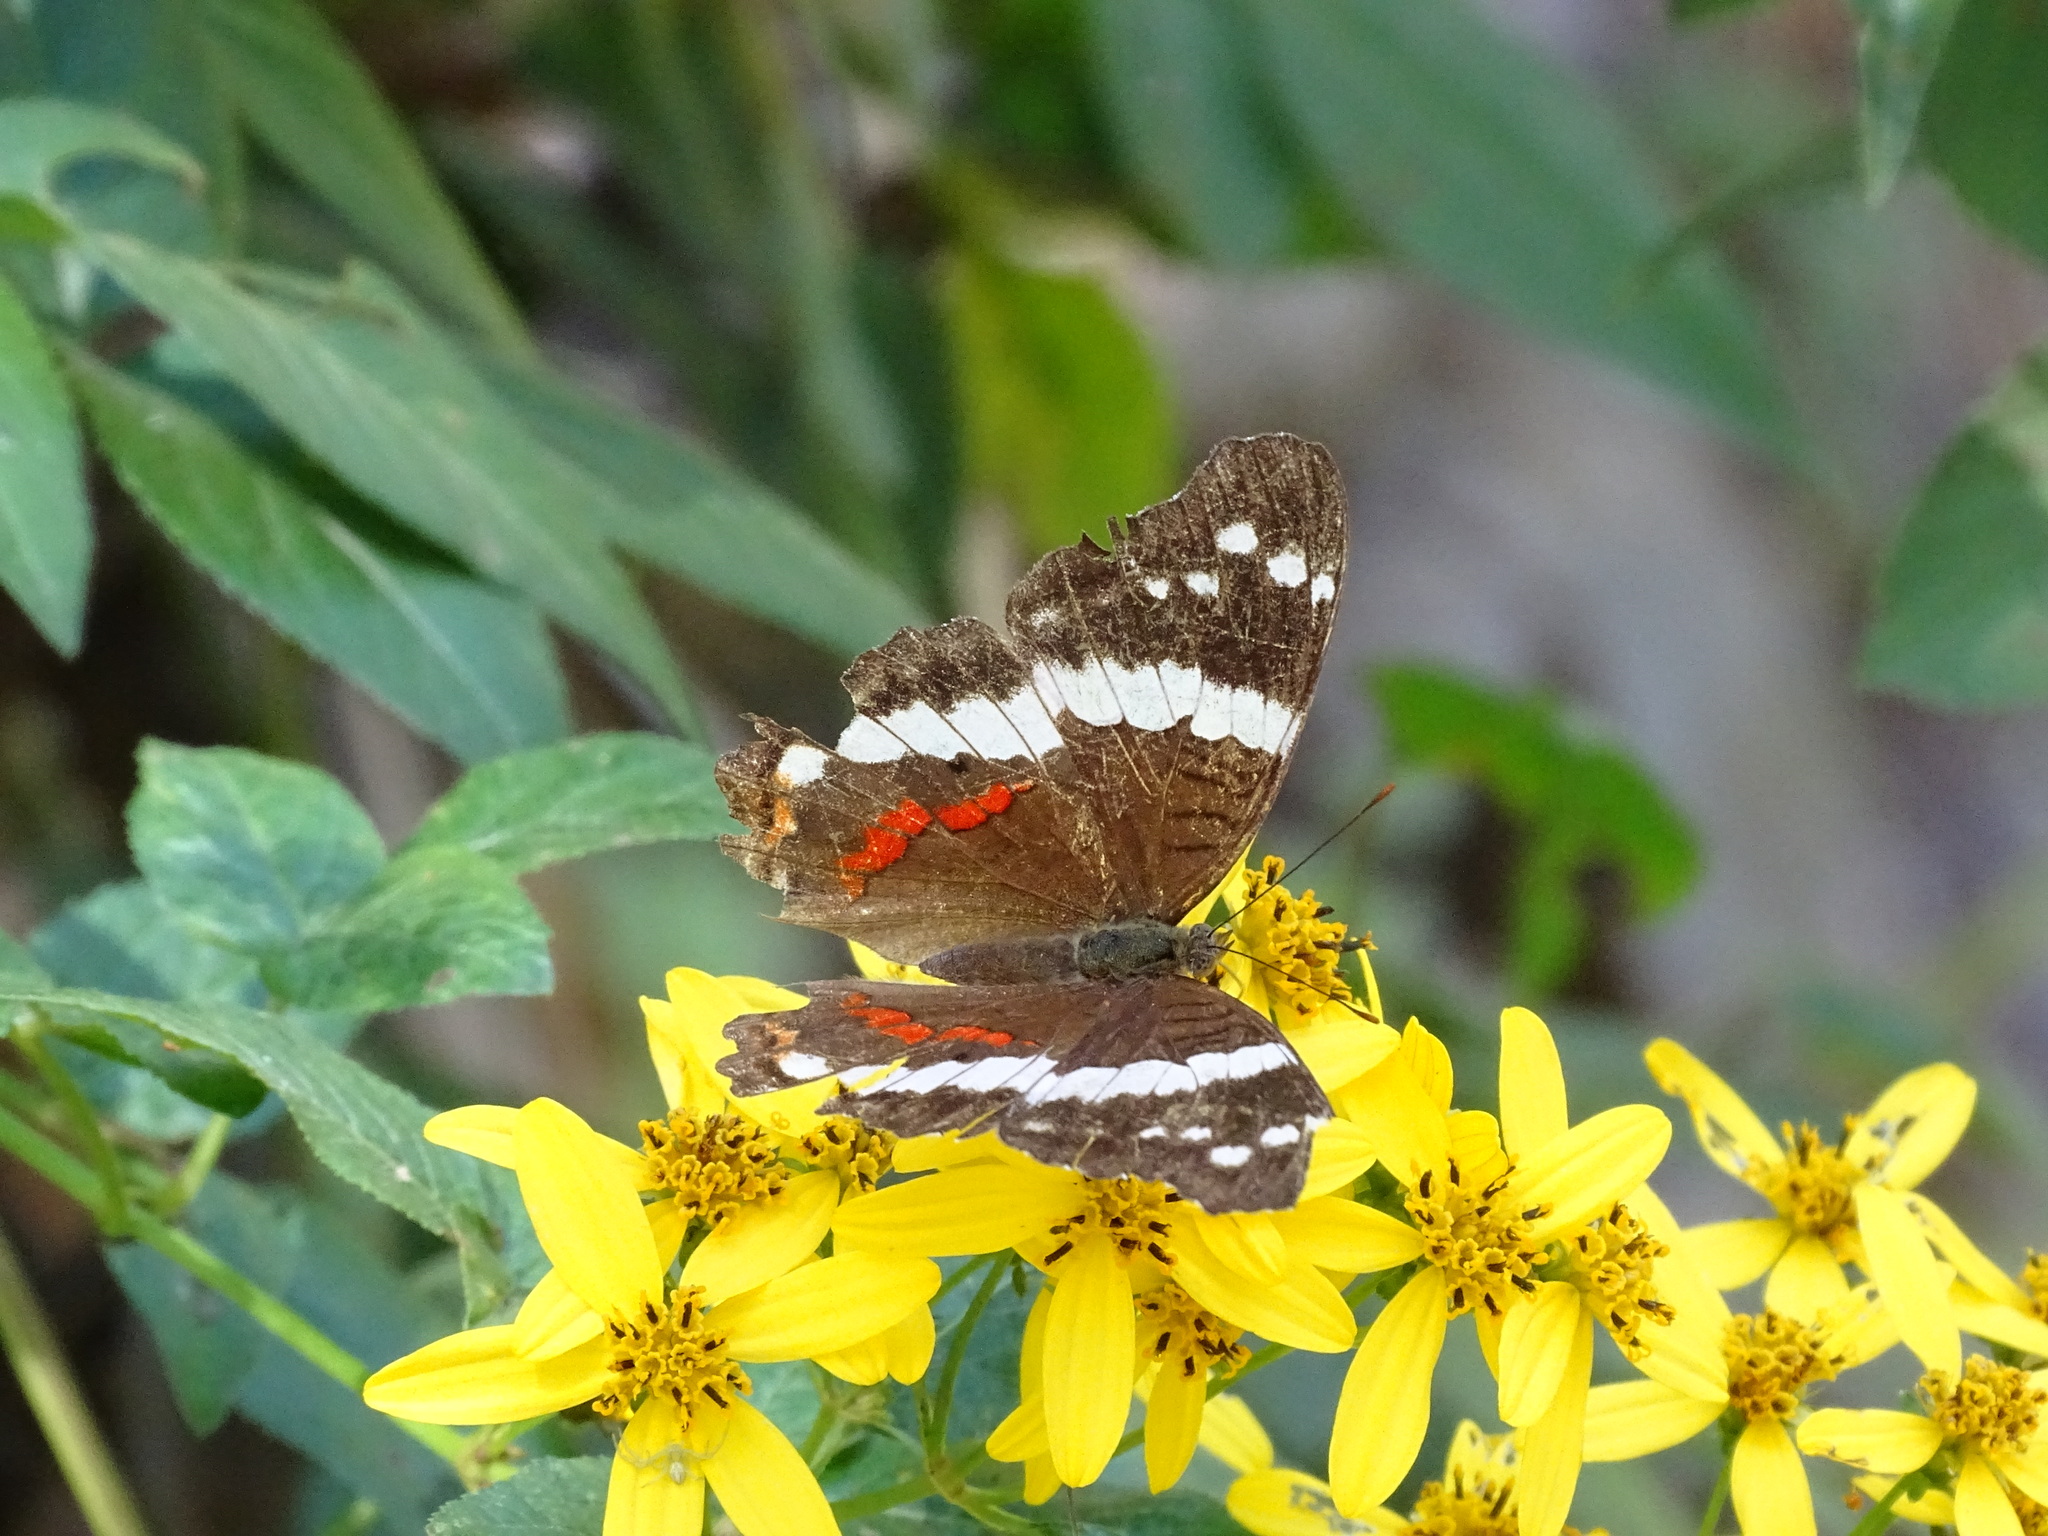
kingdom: Animalia
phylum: Arthropoda
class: Insecta
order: Lepidoptera
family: Nymphalidae
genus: Anartia
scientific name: Anartia fatima
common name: Banded peacock
